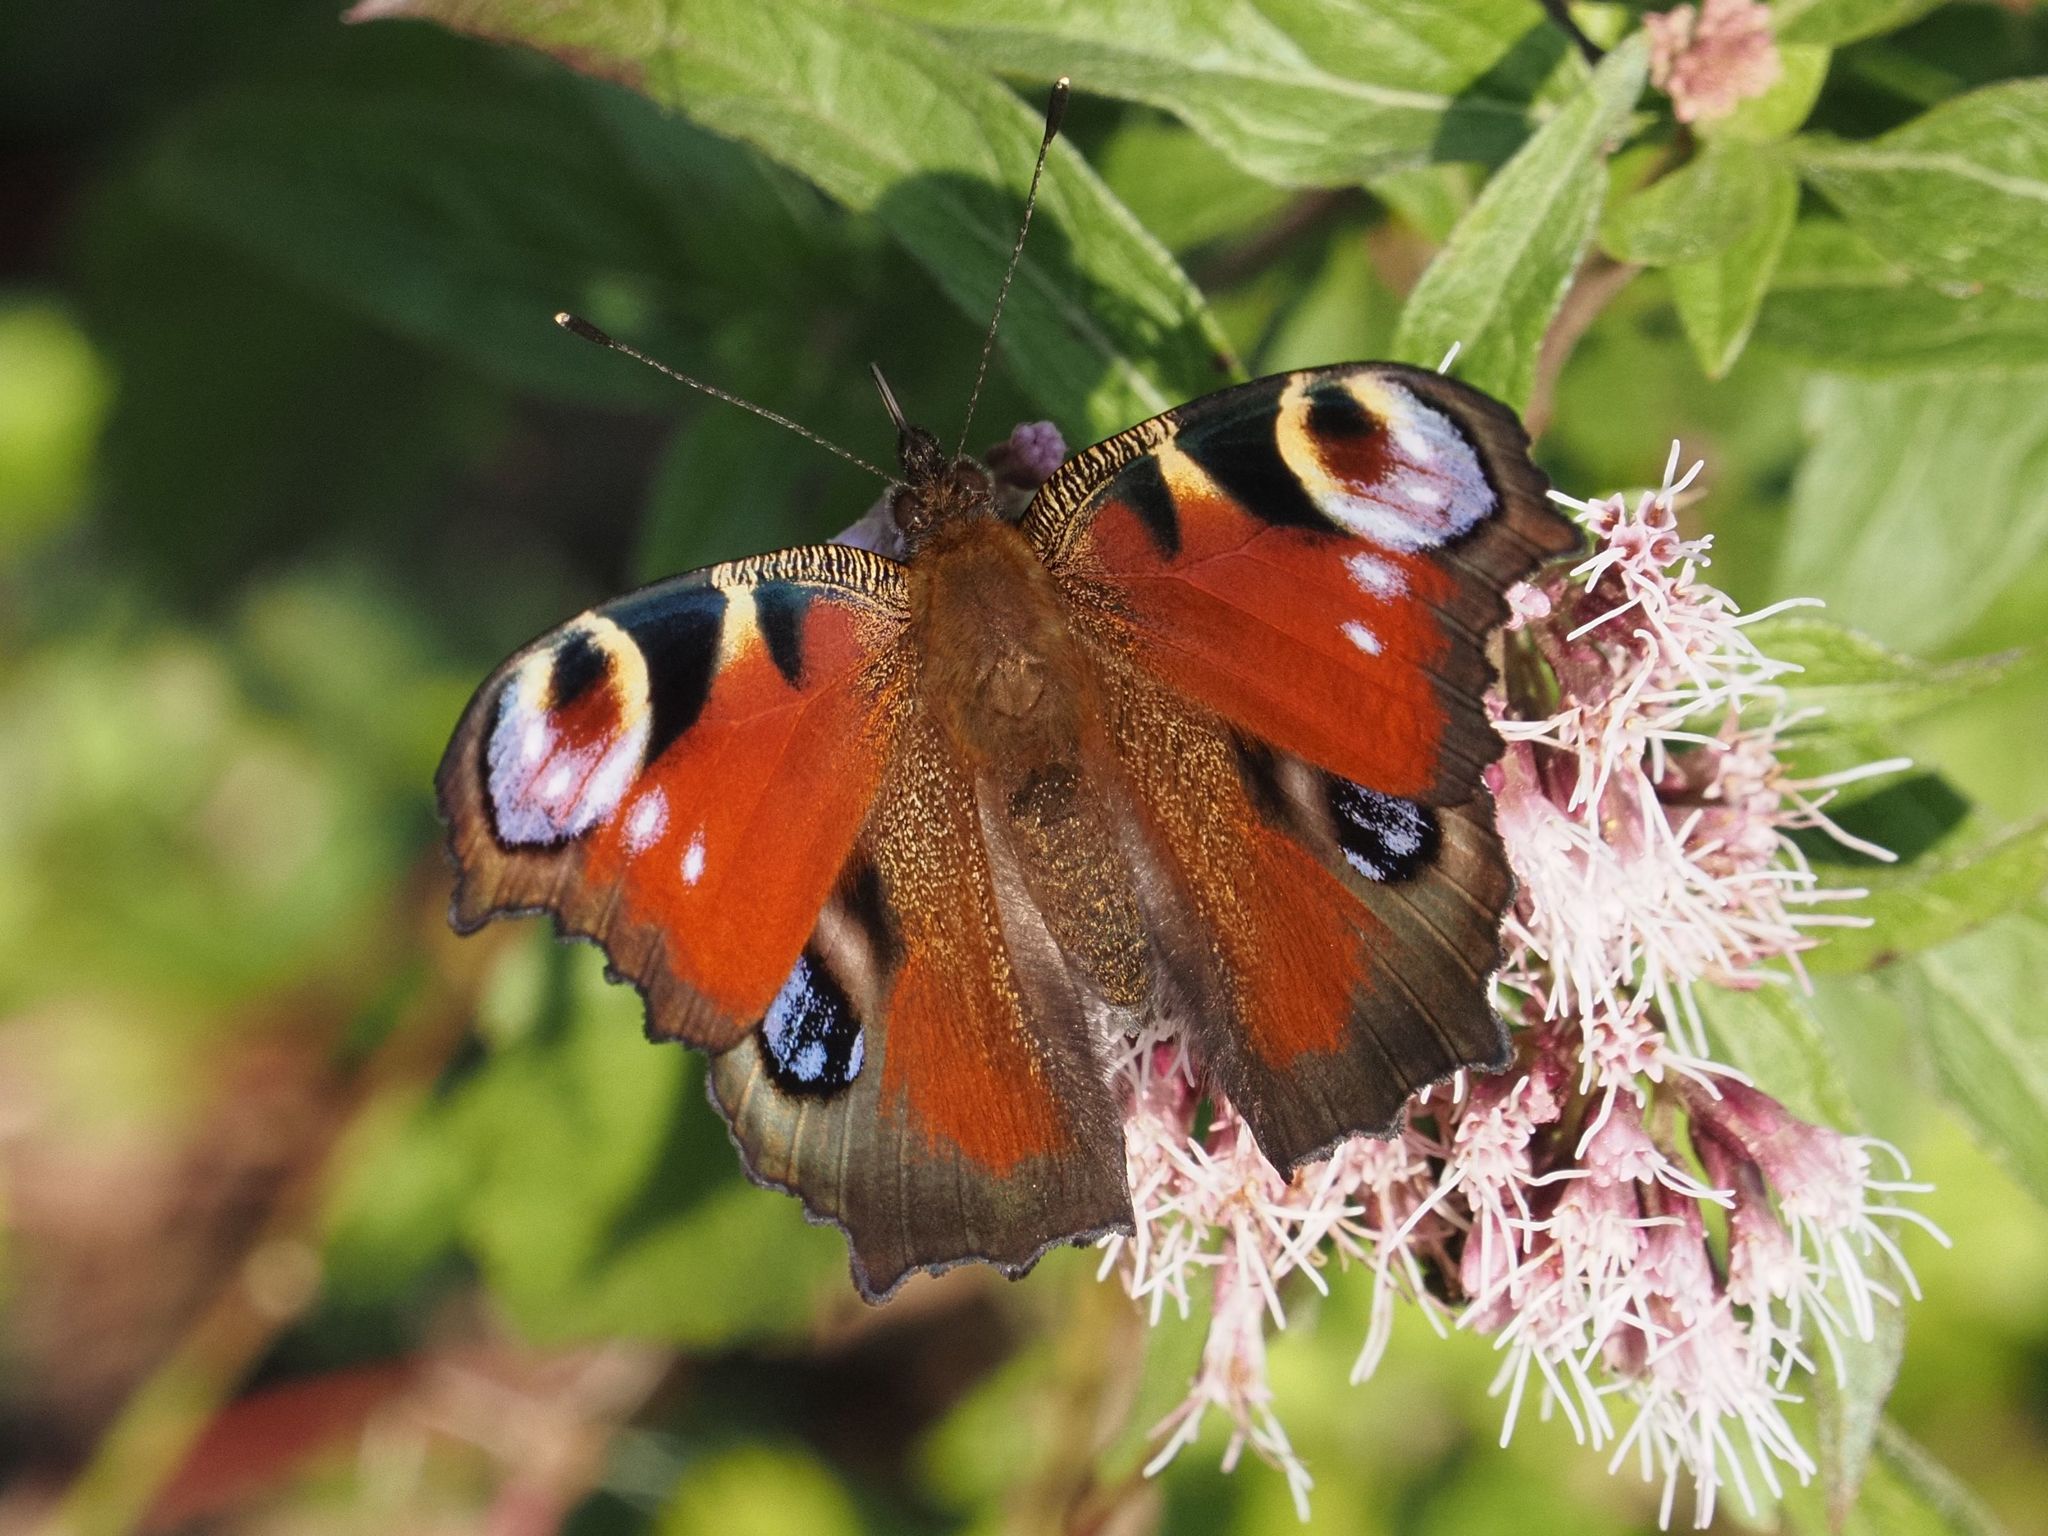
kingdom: Animalia
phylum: Arthropoda
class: Insecta
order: Lepidoptera
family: Nymphalidae
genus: Aglais
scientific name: Aglais io
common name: Peacock
